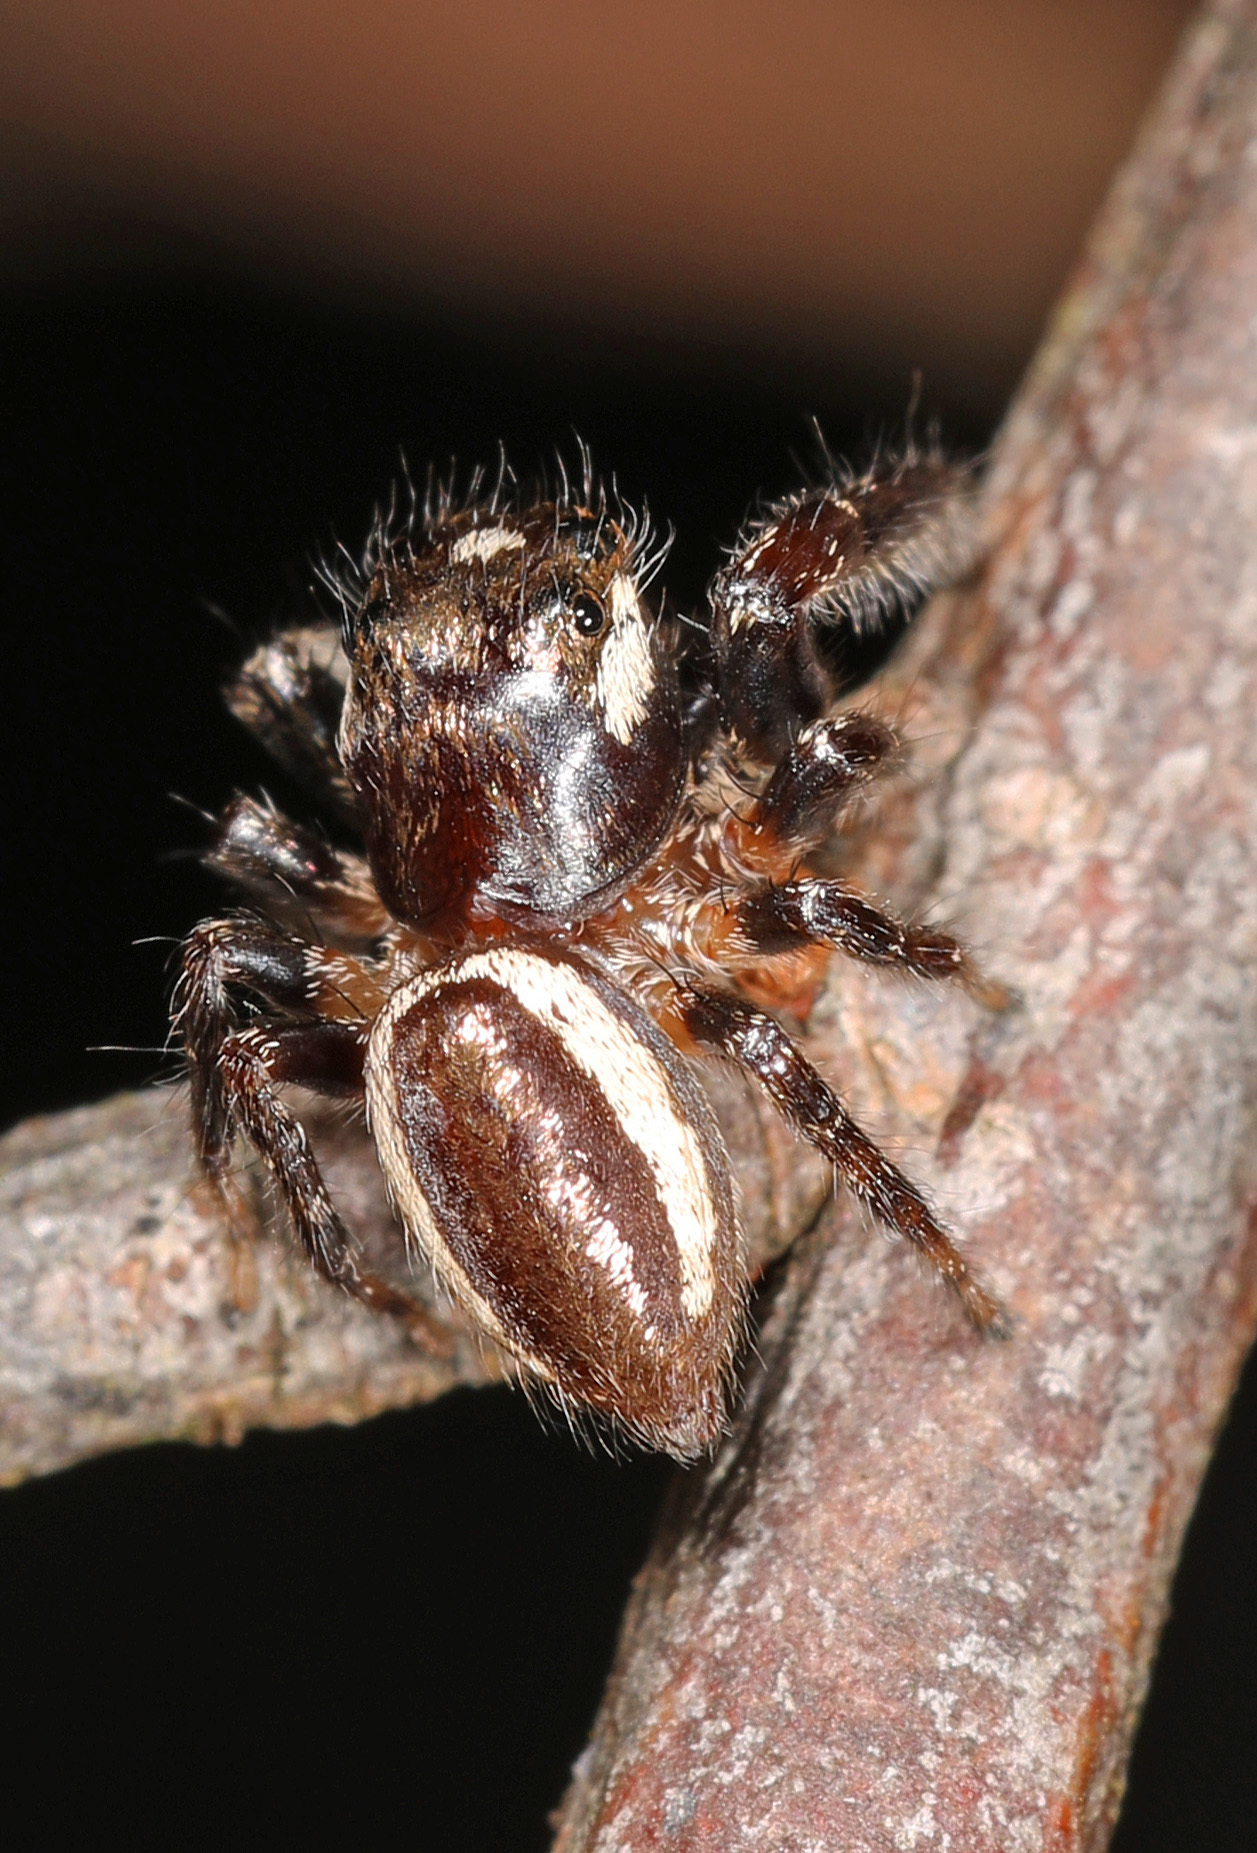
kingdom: Animalia
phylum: Arthropoda
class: Arachnida
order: Araneae
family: Salticidae
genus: Eris
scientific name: Eris militaris
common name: Bronze jumper
